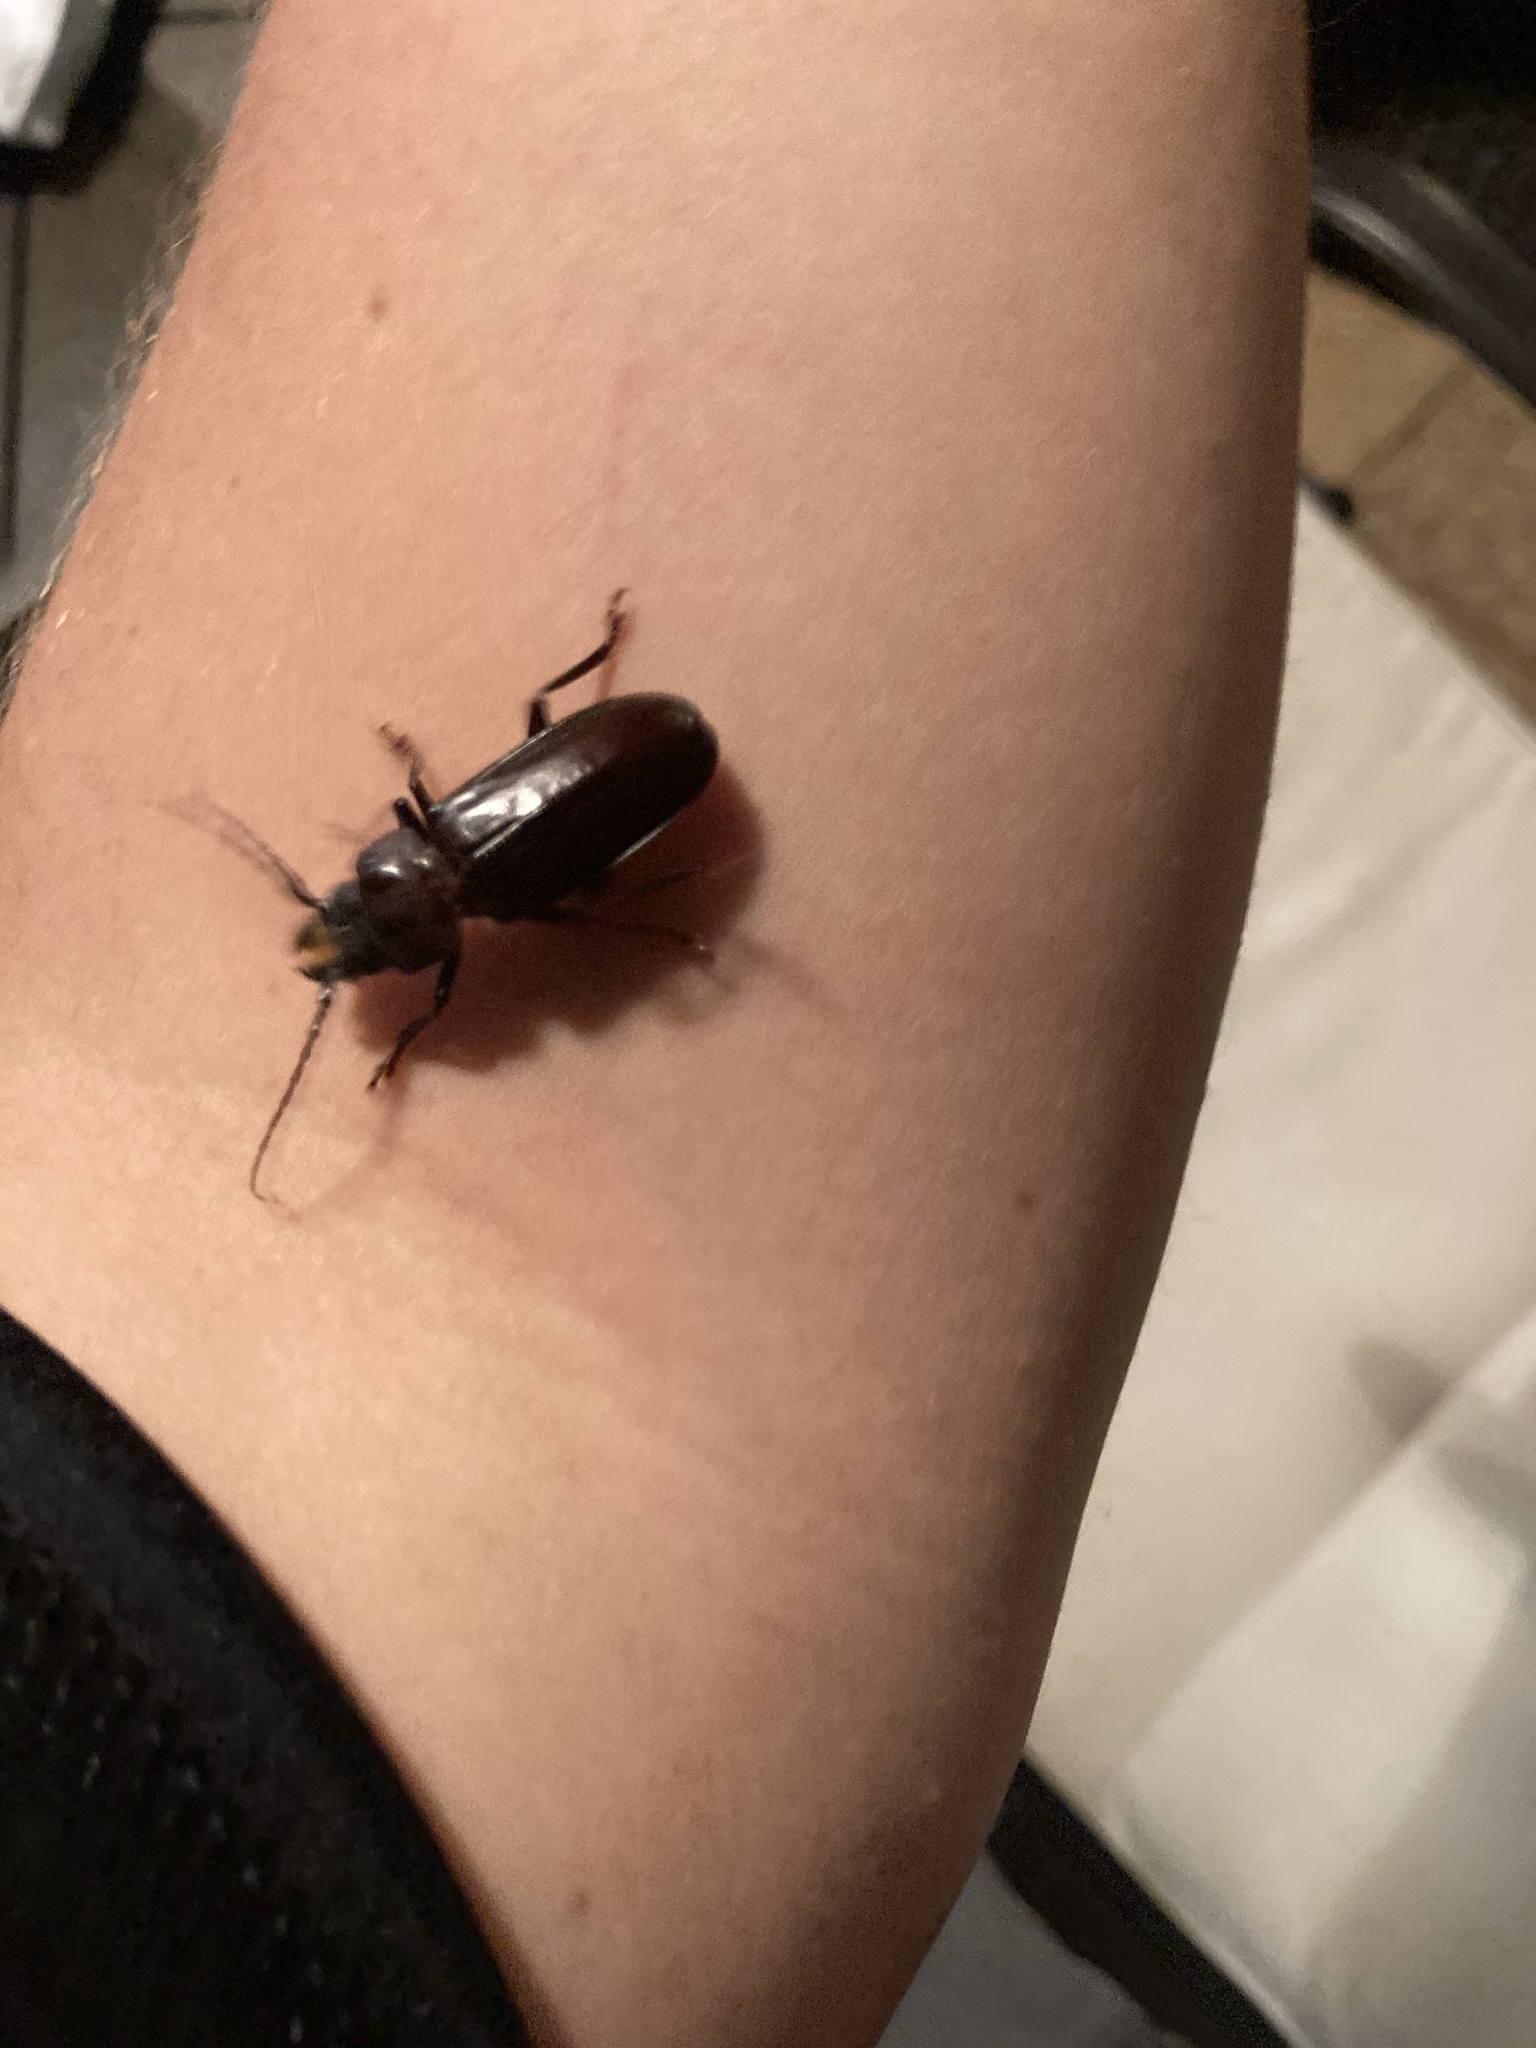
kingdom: Animalia
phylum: Arthropoda
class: Insecta
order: Coleoptera
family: Cerambycidae
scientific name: Cerambycidae
